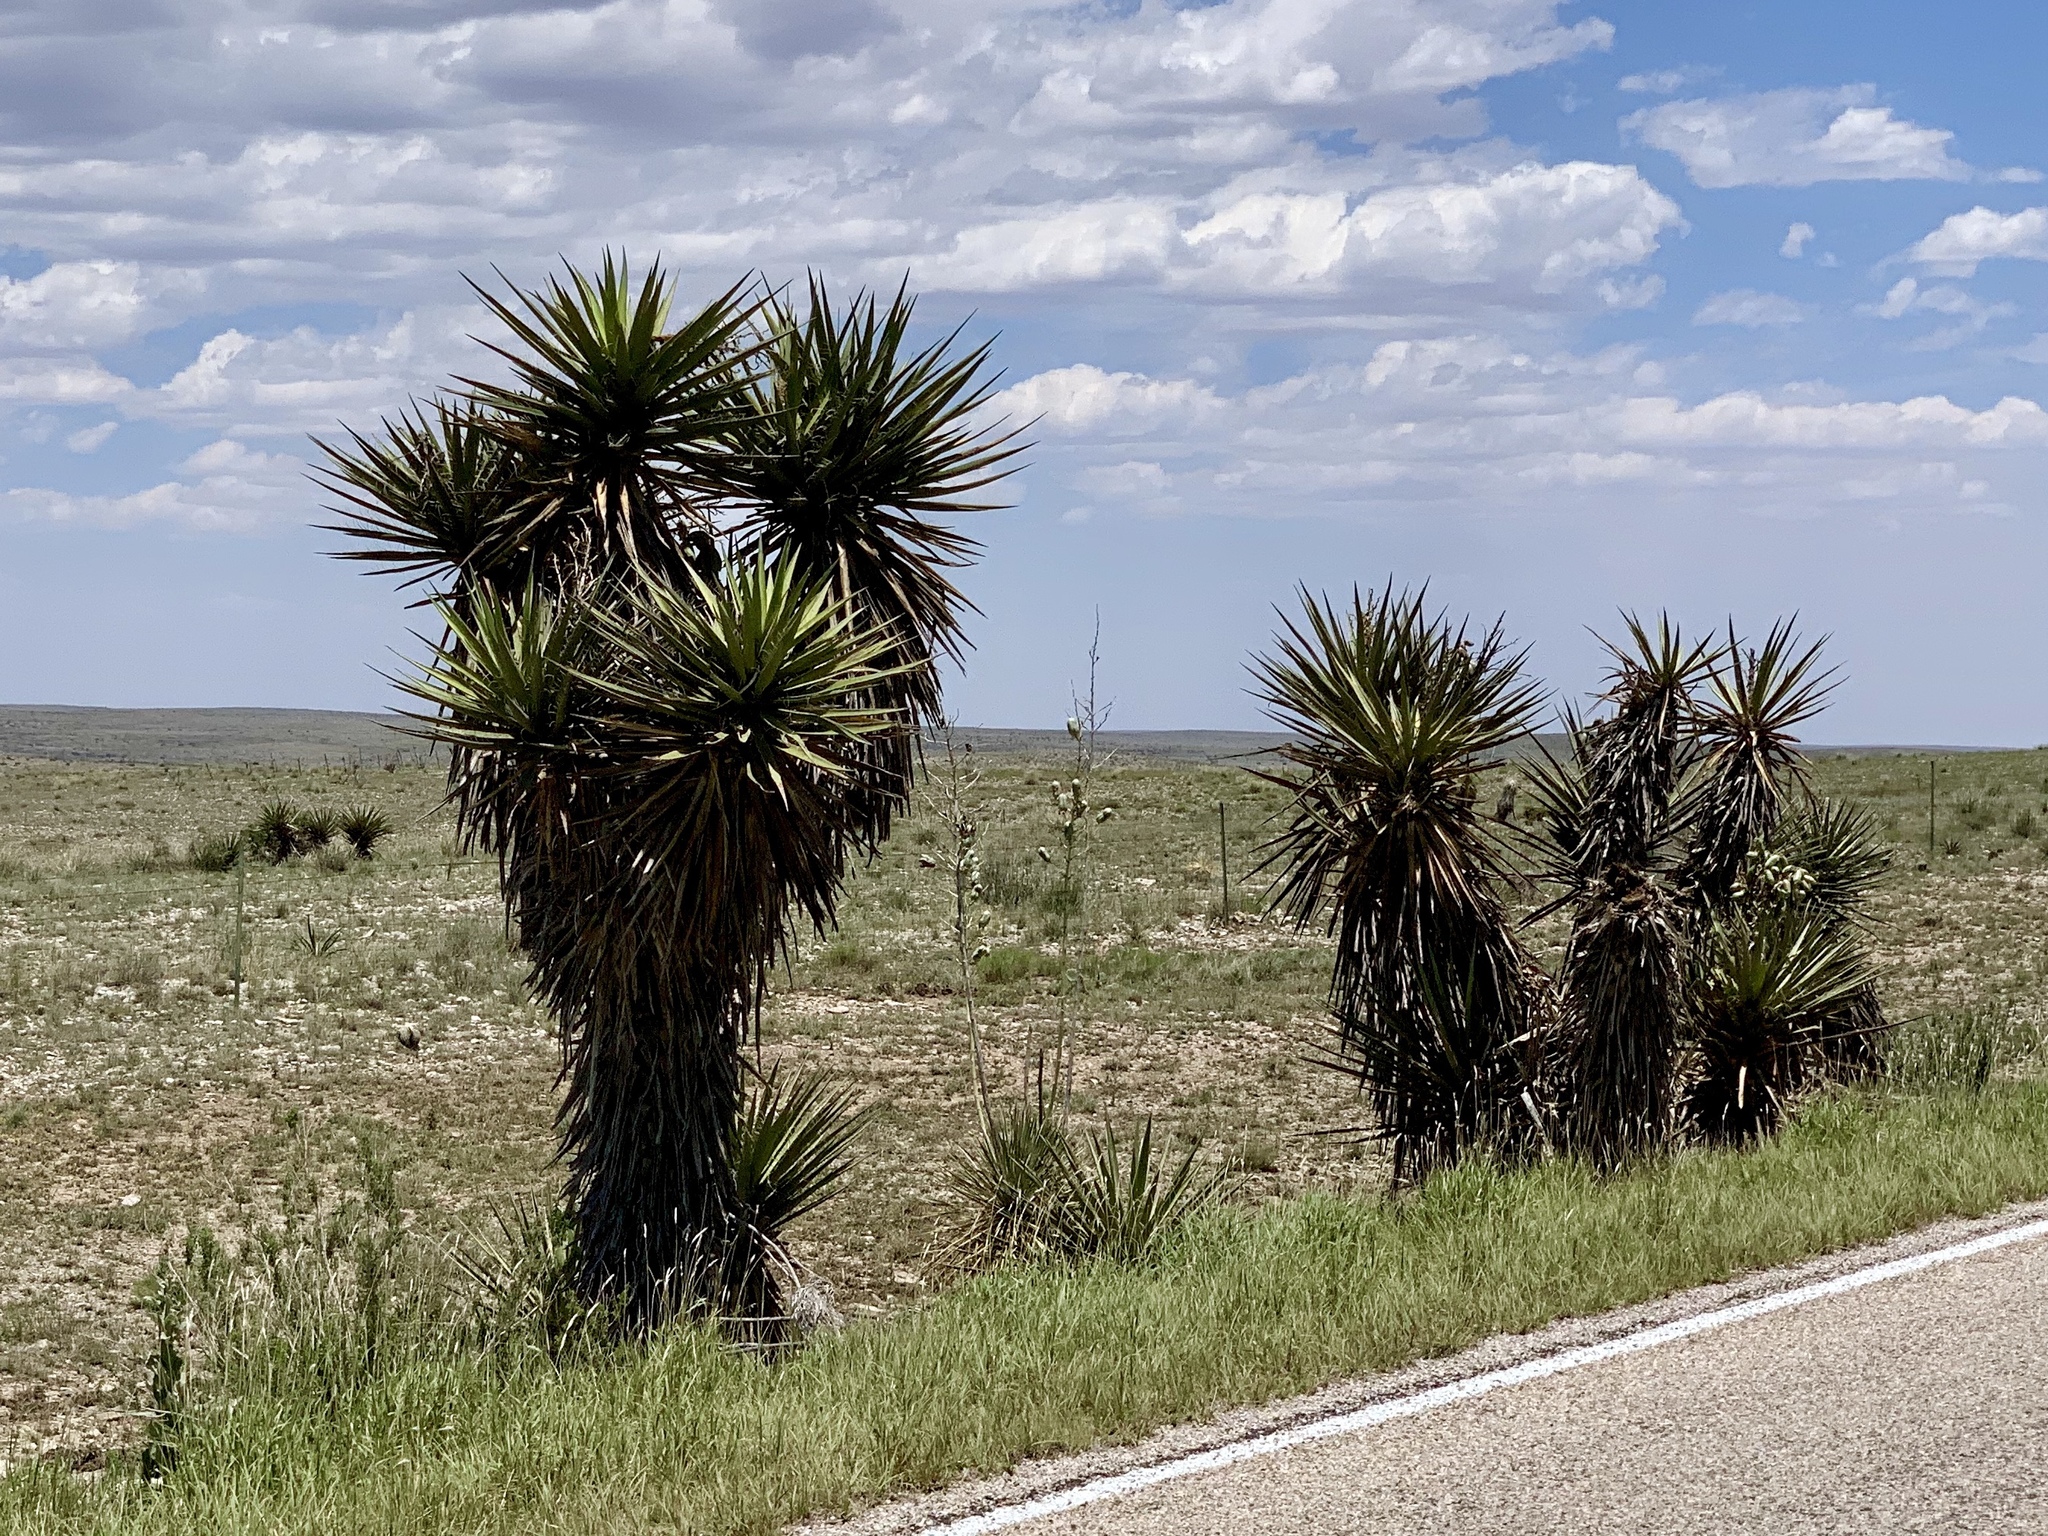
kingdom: Plantae
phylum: Tracheophyta
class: Liliopsida
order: Asparagales
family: Asparagaceae
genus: Yucca
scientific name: Yucca treculiana
